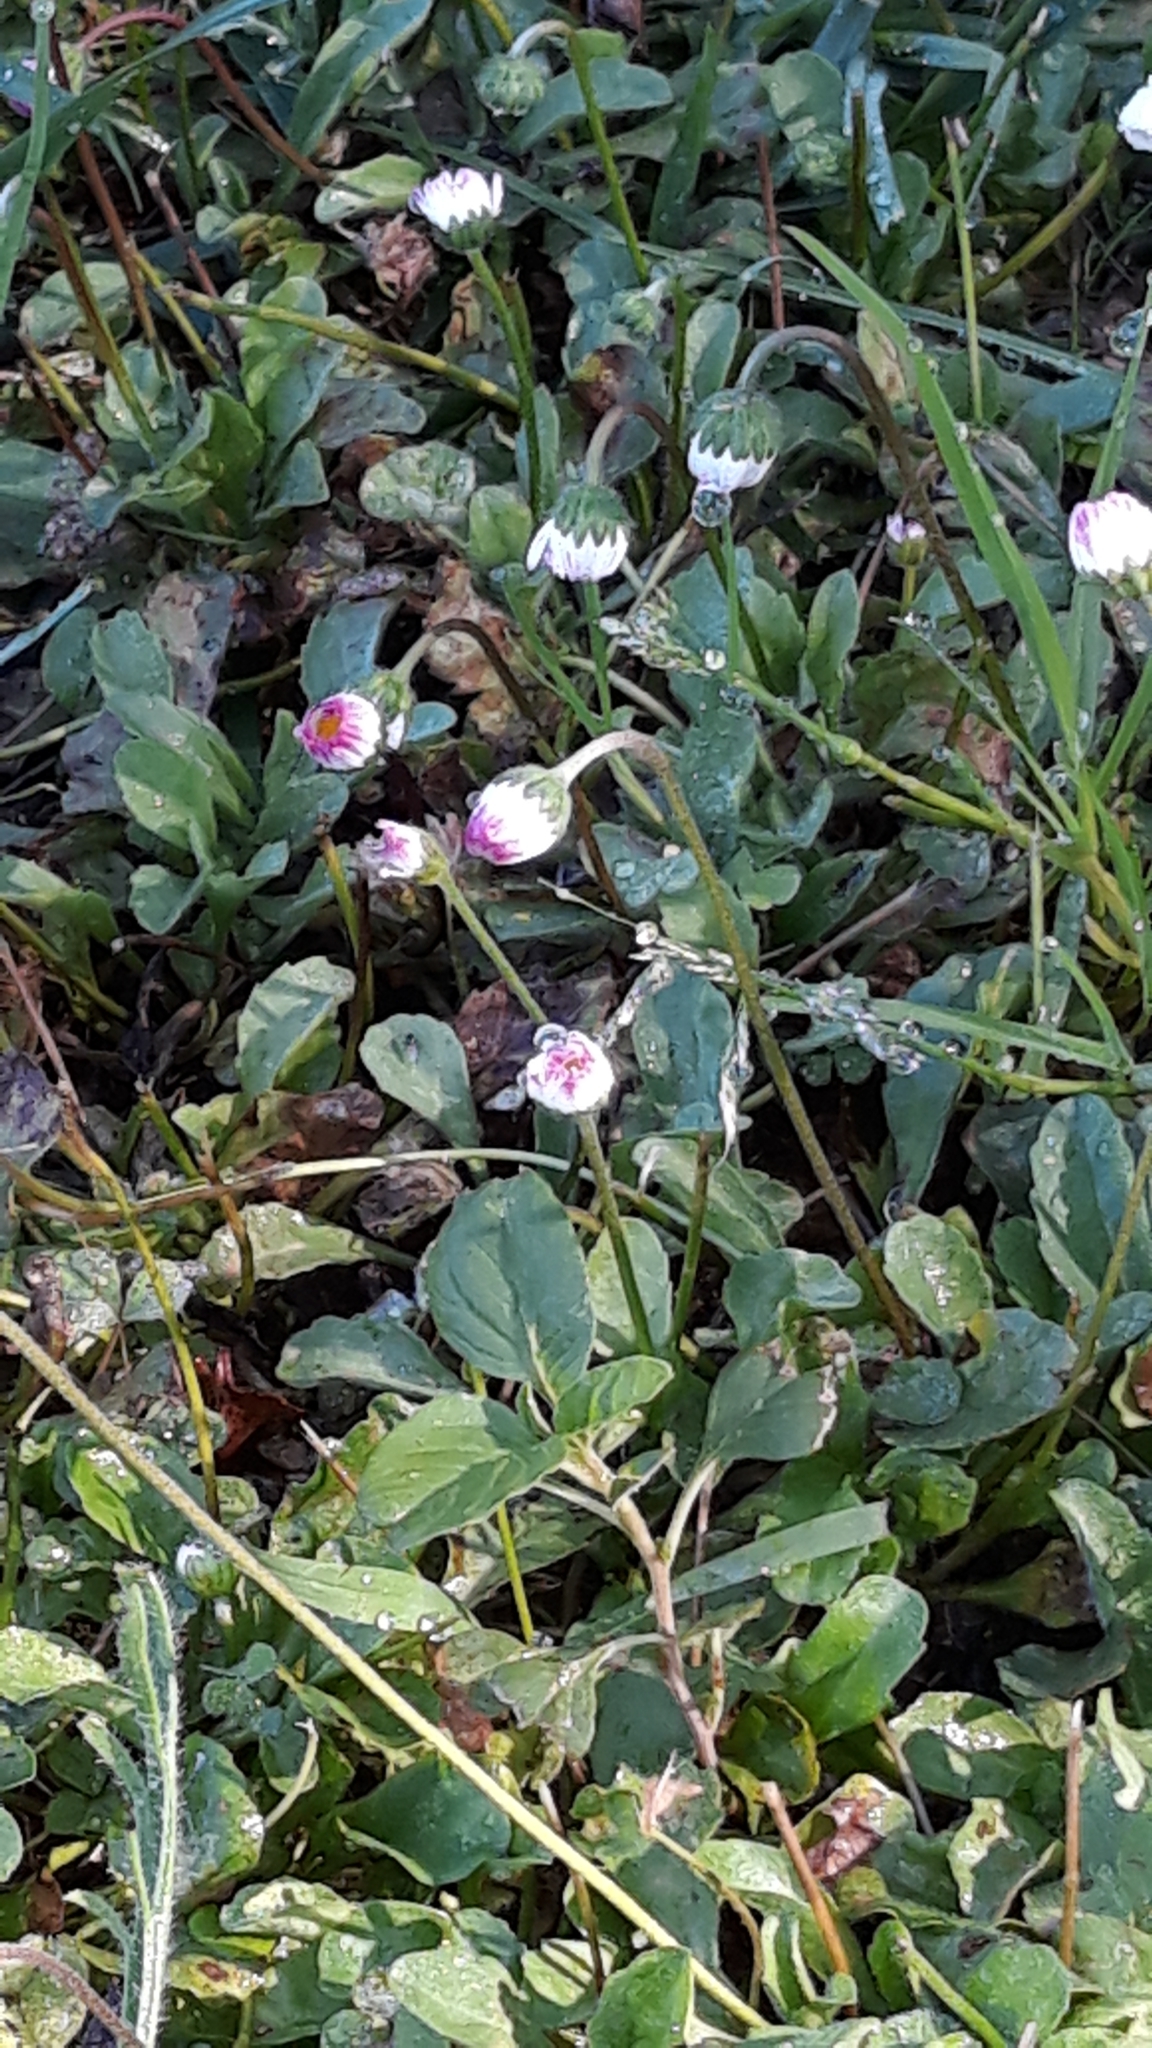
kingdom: Plantae
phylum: Tracheophyta
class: Magnoliopsida
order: Asterales
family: Asteraceae
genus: Bellis
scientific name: Bellis perennis
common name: Lawndaisy
